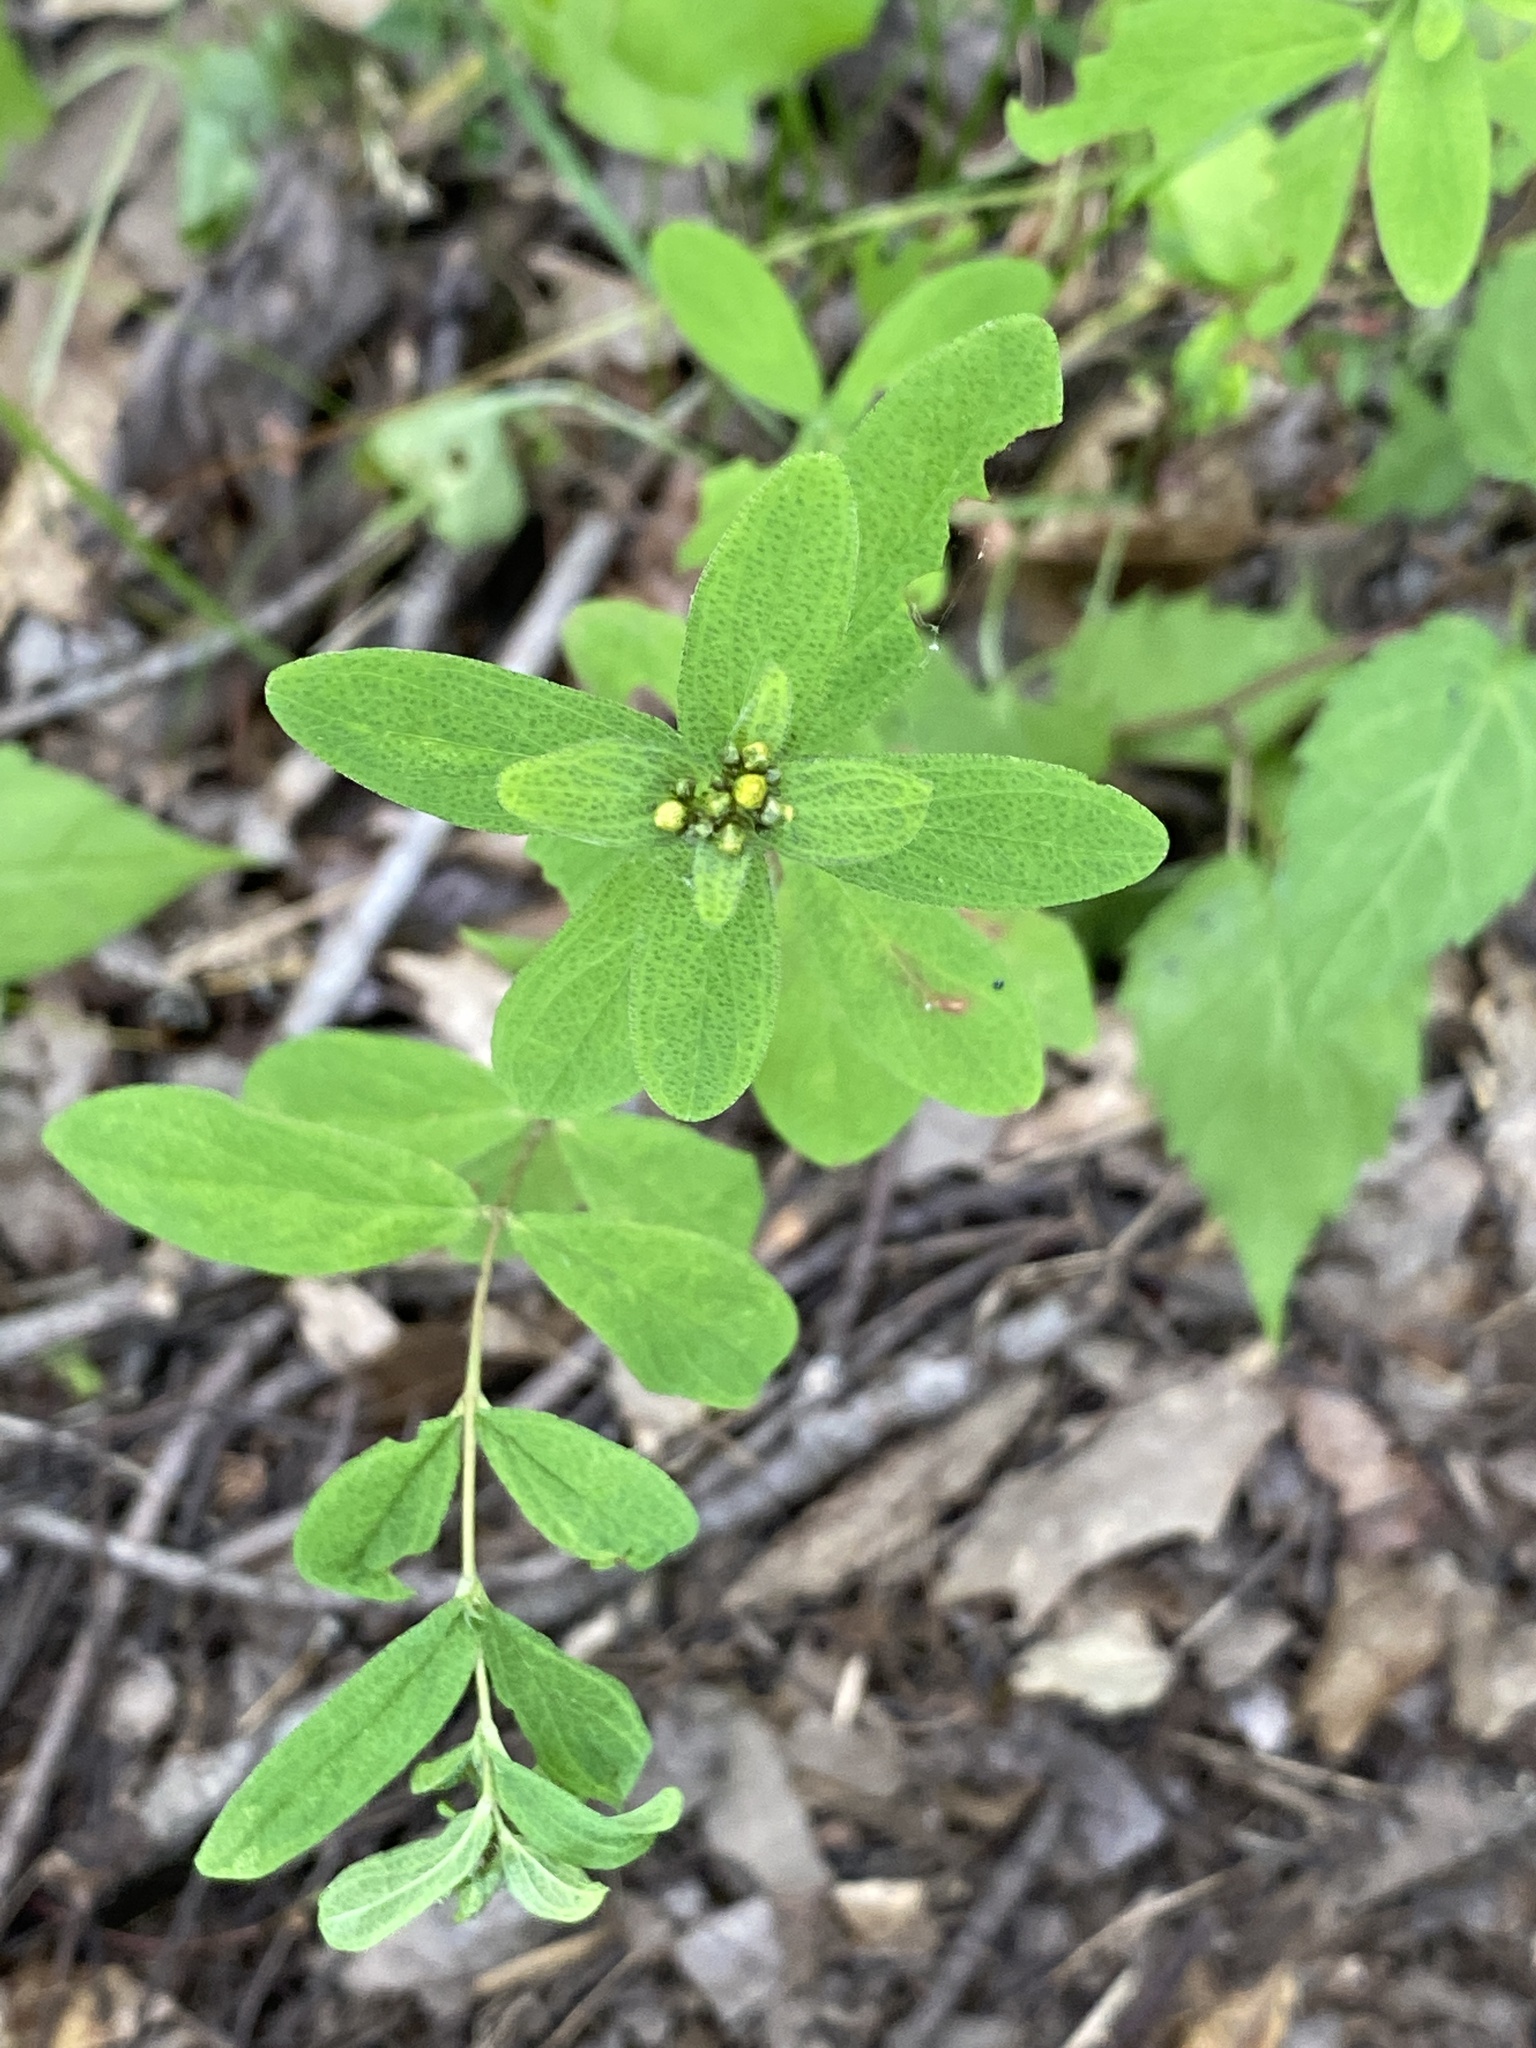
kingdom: Plantae
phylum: Tracheophyta
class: Magnoliopsida
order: Malpighiales
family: Hypericaceae
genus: Hypericum
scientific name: Hypericum punctatum
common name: Spotted st. john's-wort
